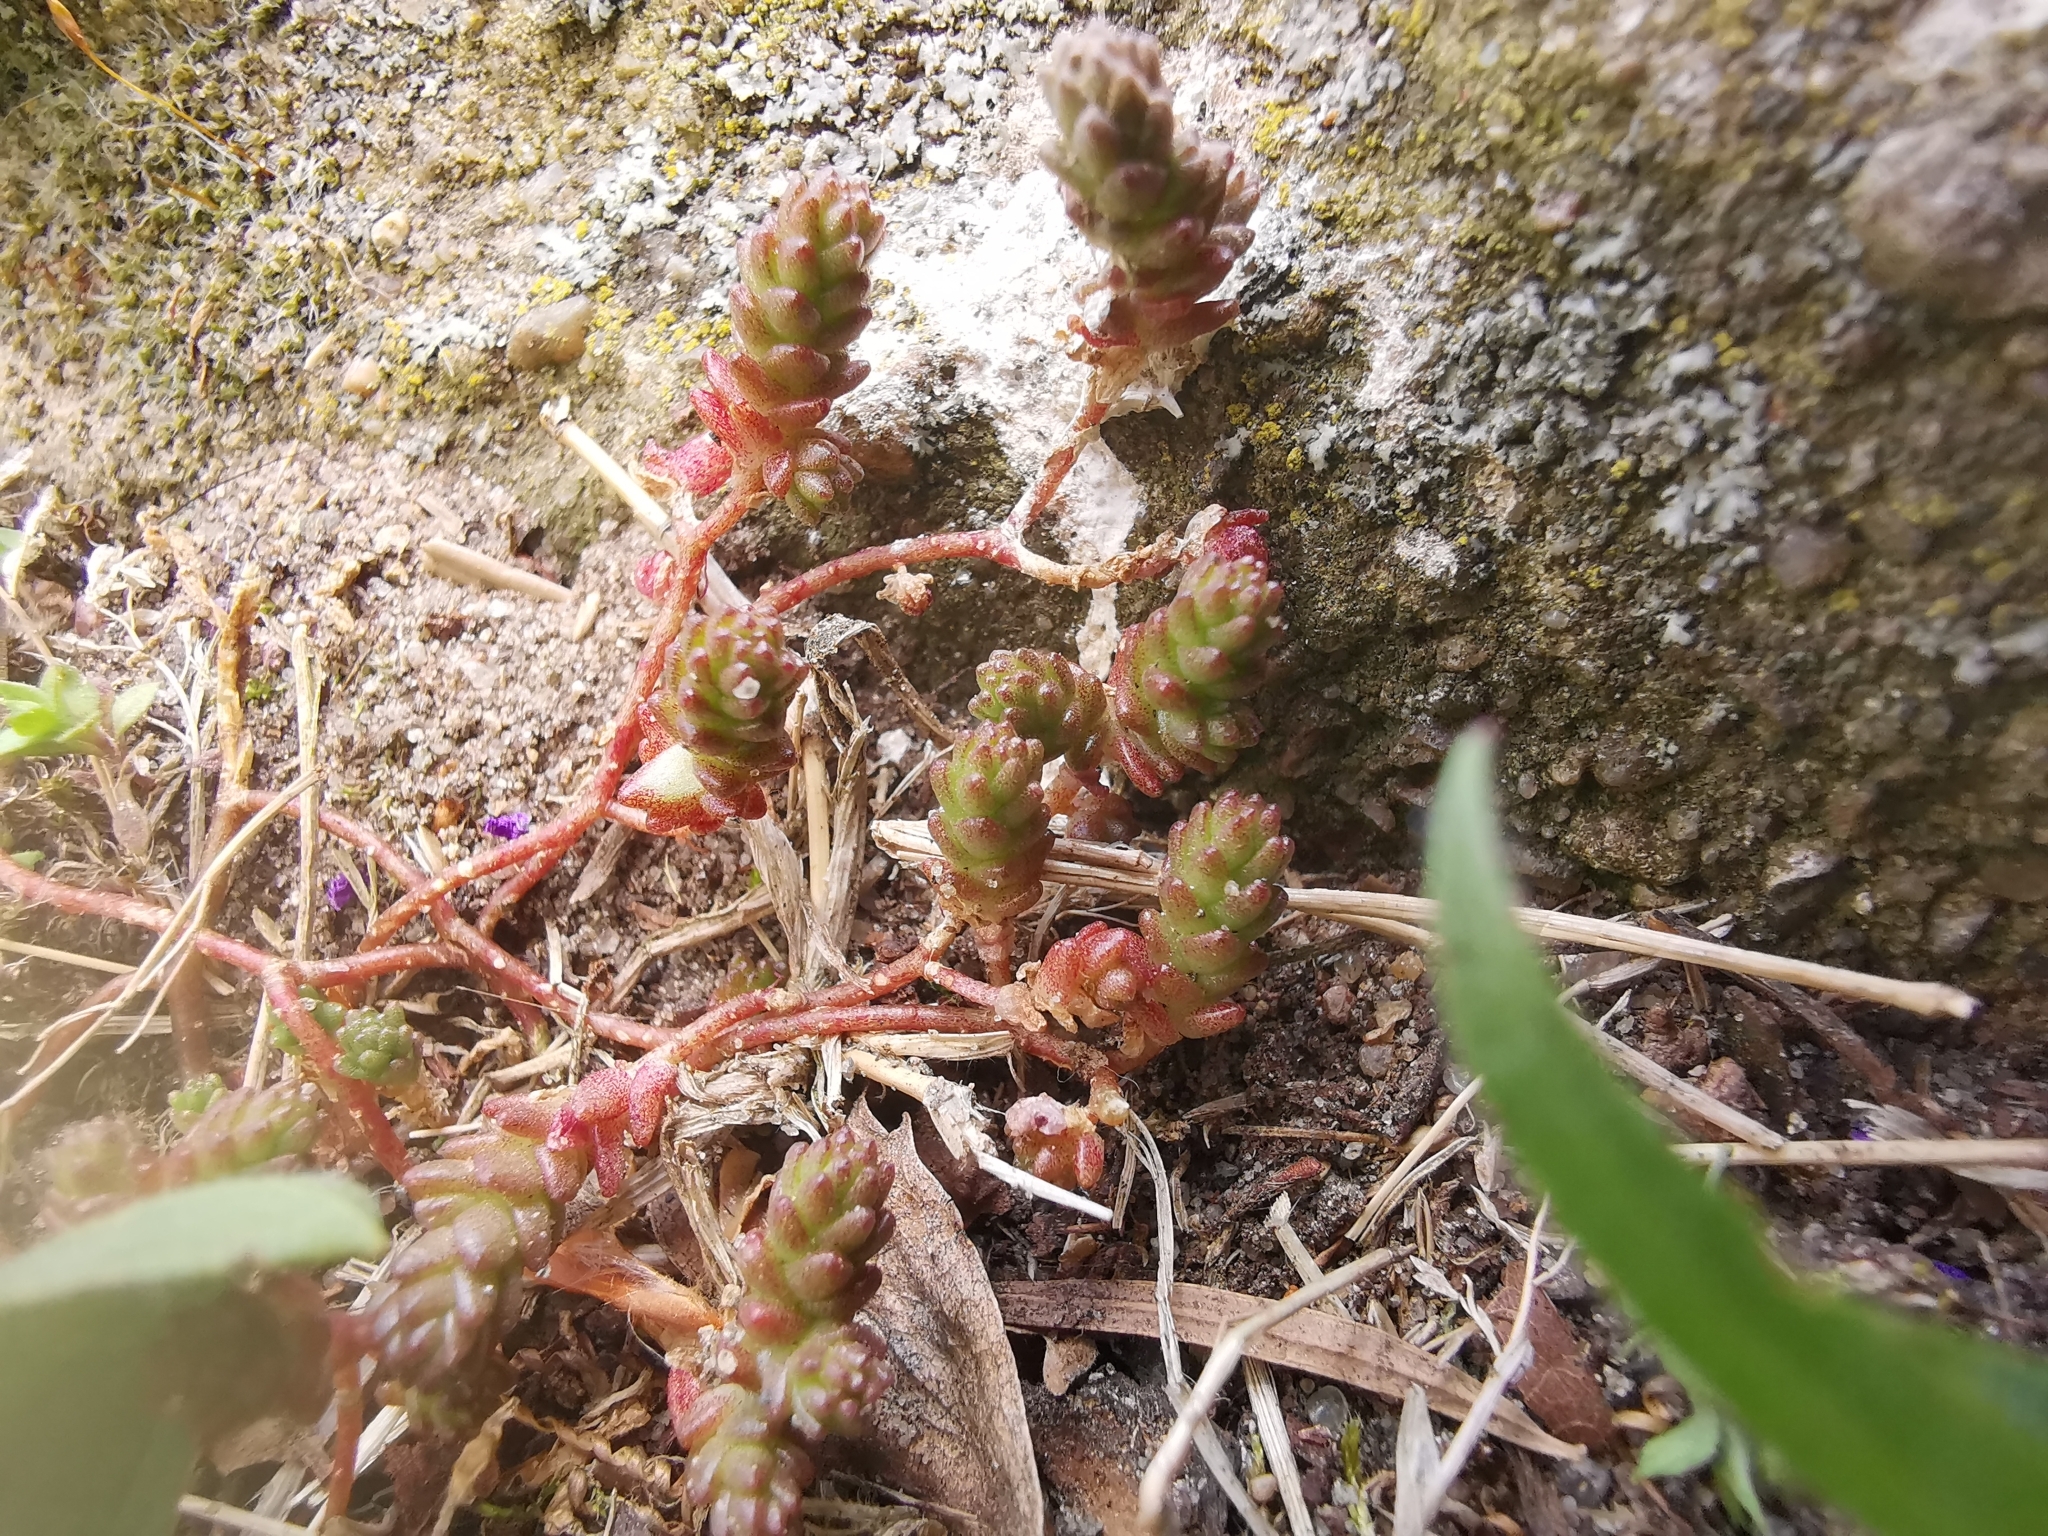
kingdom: Plantae
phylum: Tracheophyta
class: Magnoliopsida
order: Saxifragales
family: Crassulaceae
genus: Sedum
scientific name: Sedum acre
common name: Biting stonecrop
